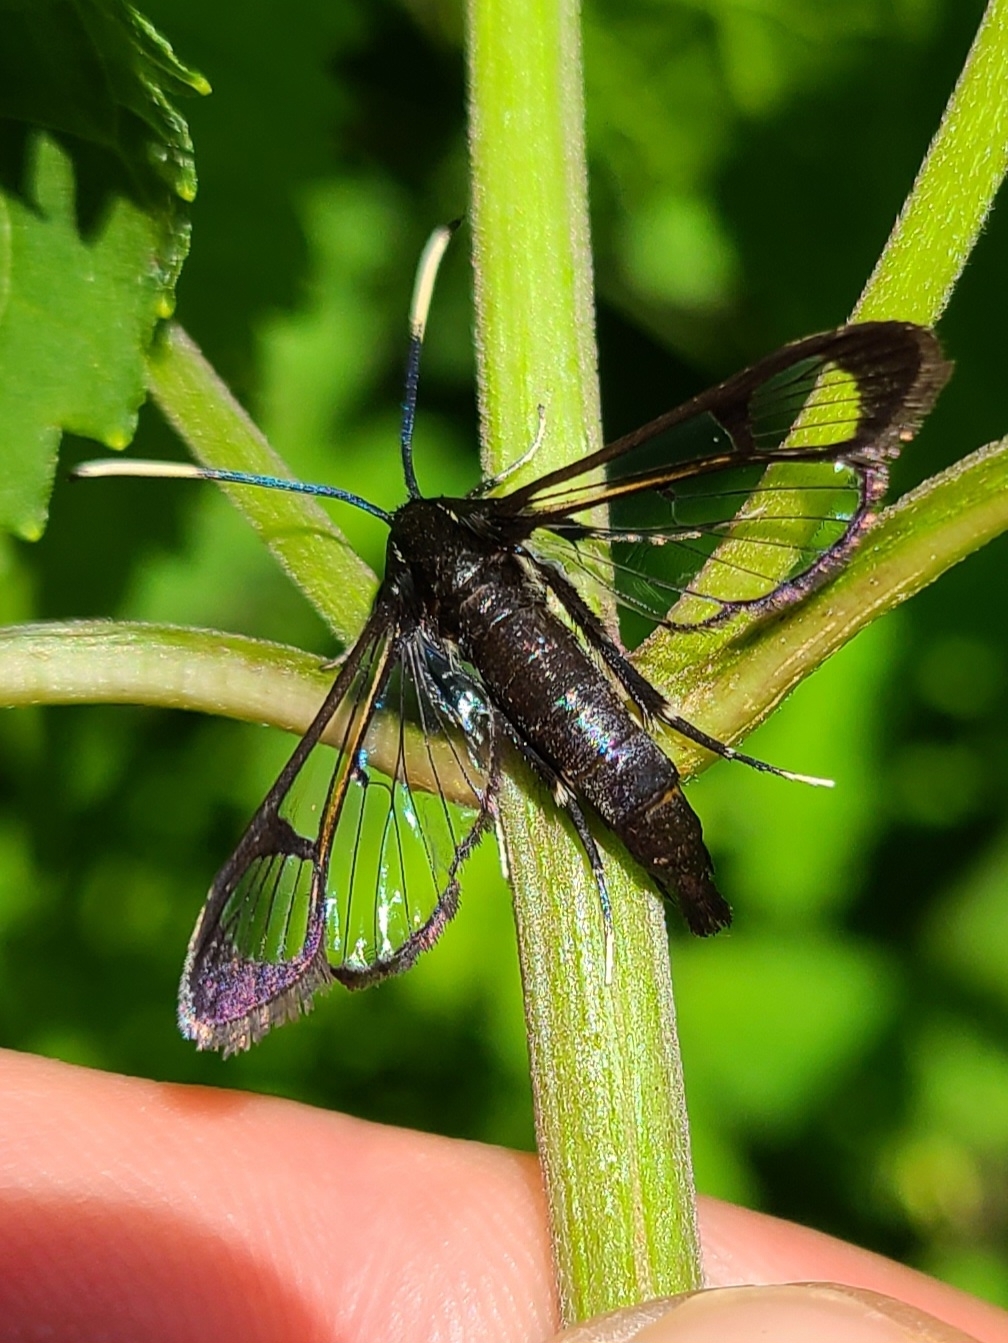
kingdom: Animalia
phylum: Arthropoda
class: Insecta
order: Lepidoptera
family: Sesiidae
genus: Synanthedon
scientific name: Synanthedon fatifera
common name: Arrowwood clearwing moth
